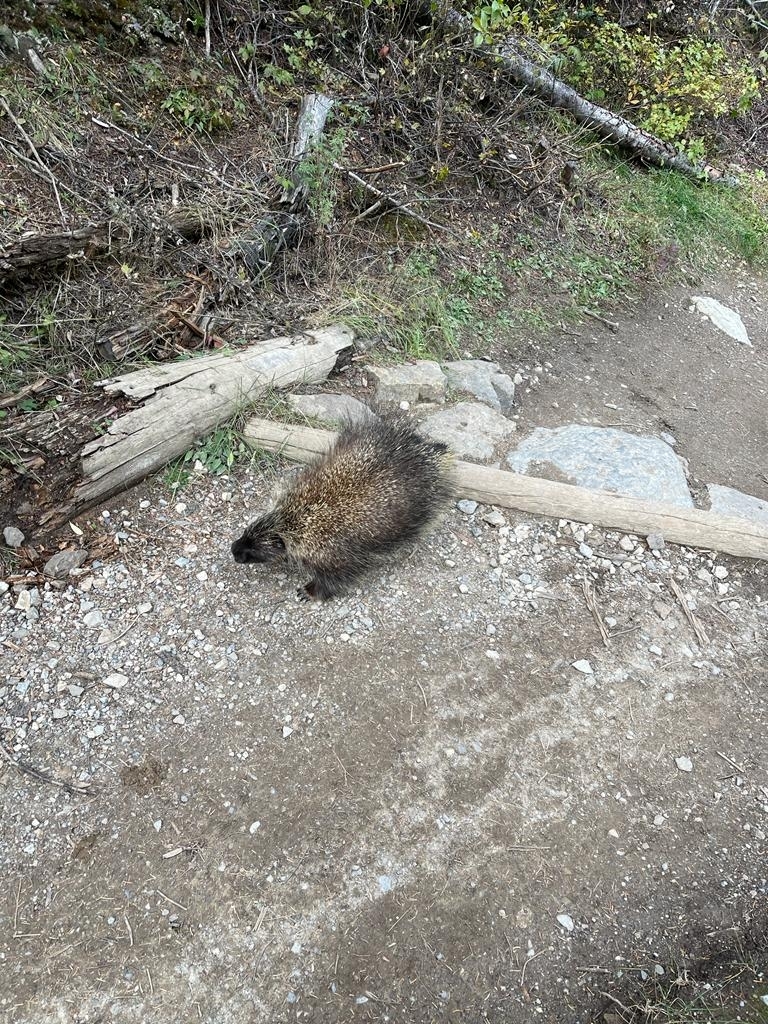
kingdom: Animalia
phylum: Chordata
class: Mammalia
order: Rodentia
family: Erethizontidae
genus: Erethizon
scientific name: Erethizon dorsatus
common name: North american porcupine
